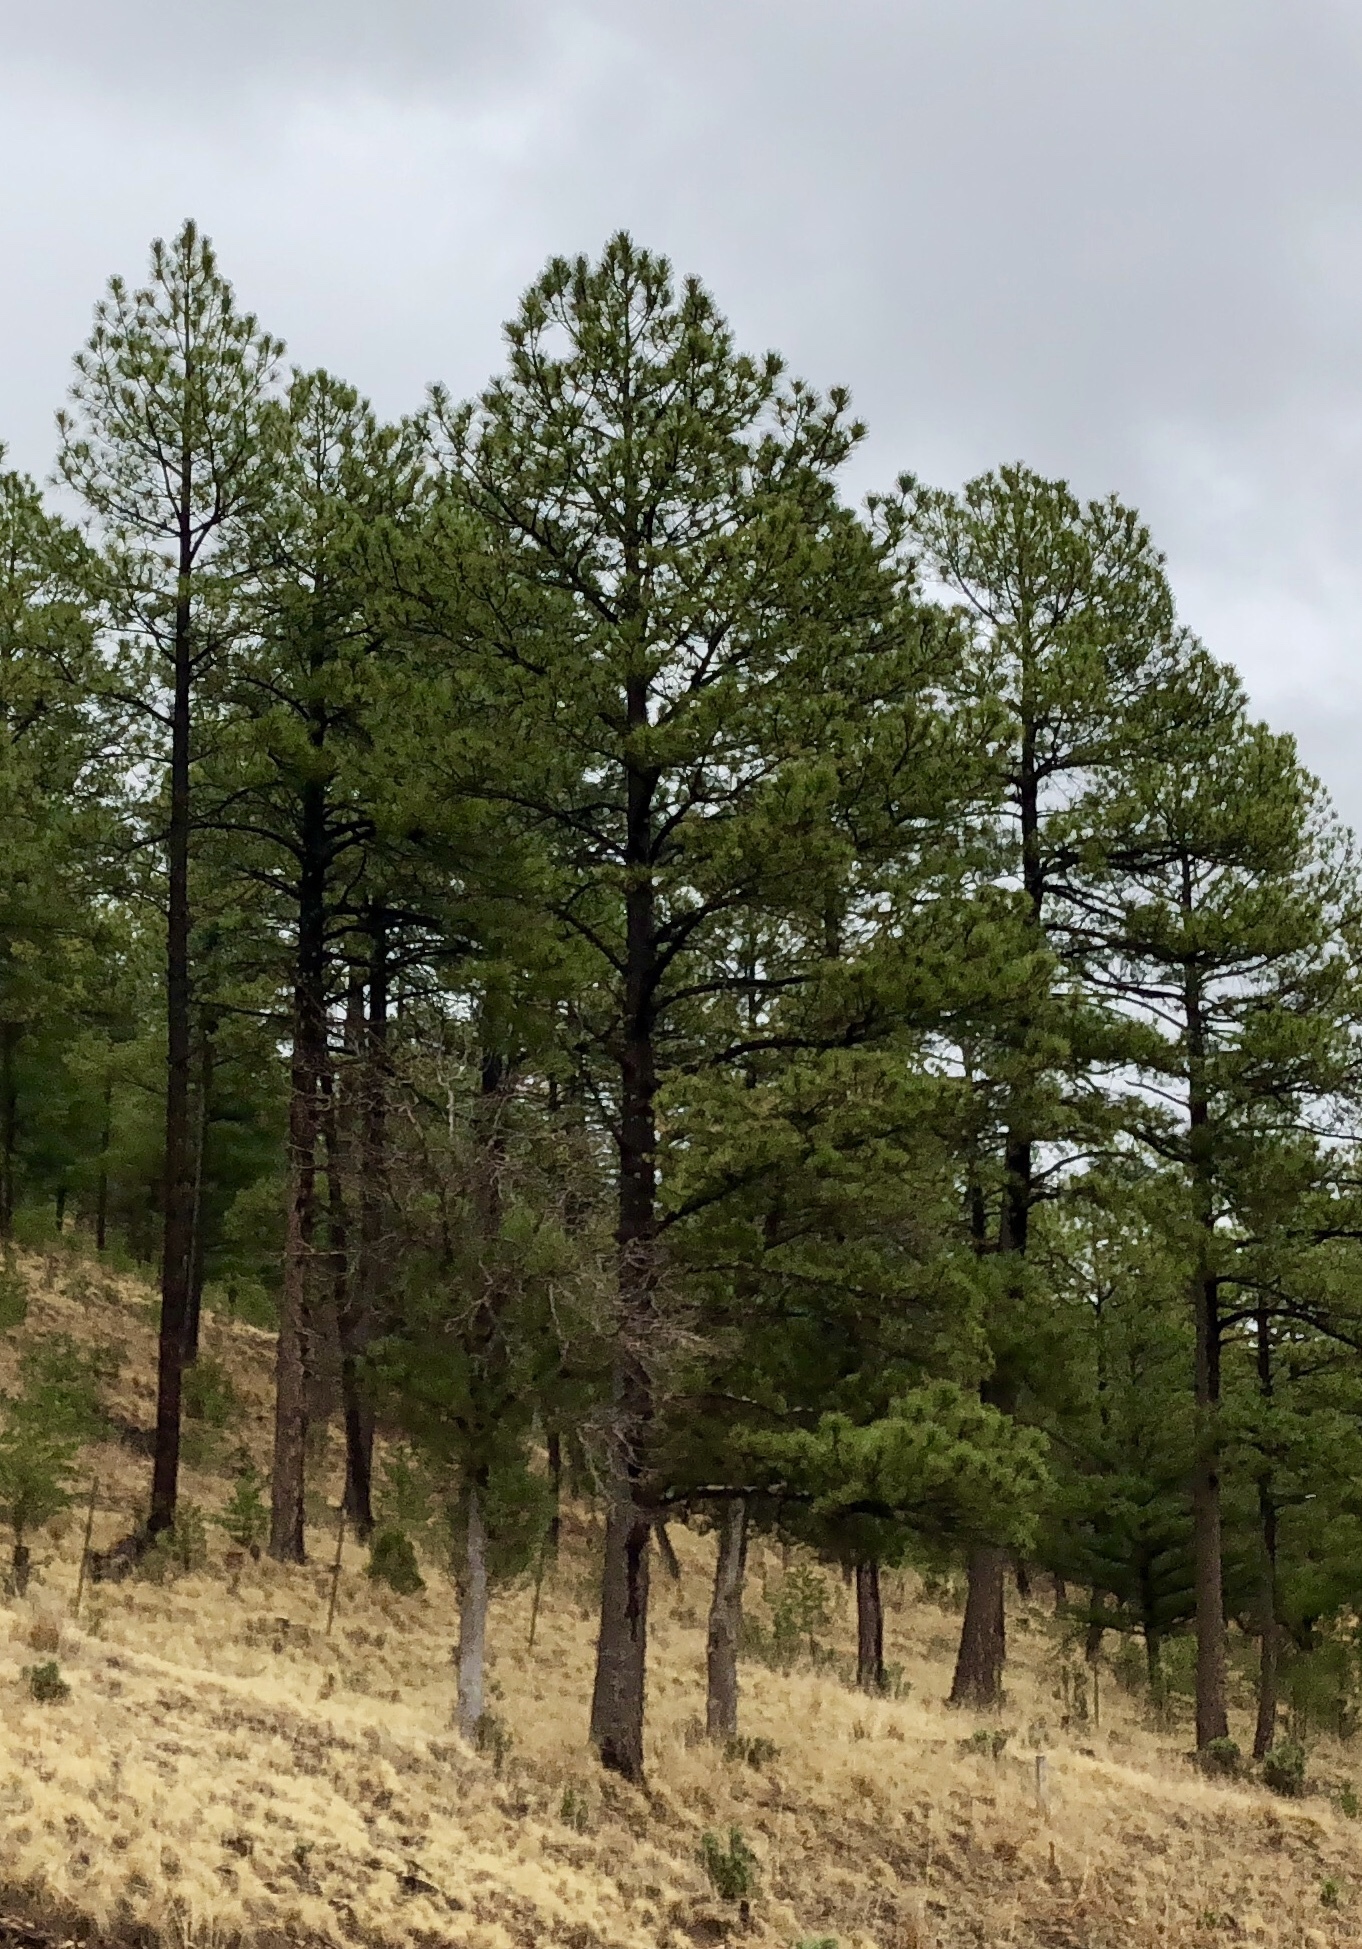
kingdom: Plantae
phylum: Tracheophyta
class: Pinopsida
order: Pinales
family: Pinaceae
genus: Pinus
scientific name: Pinus ponderosa
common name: Western yellow-pine
